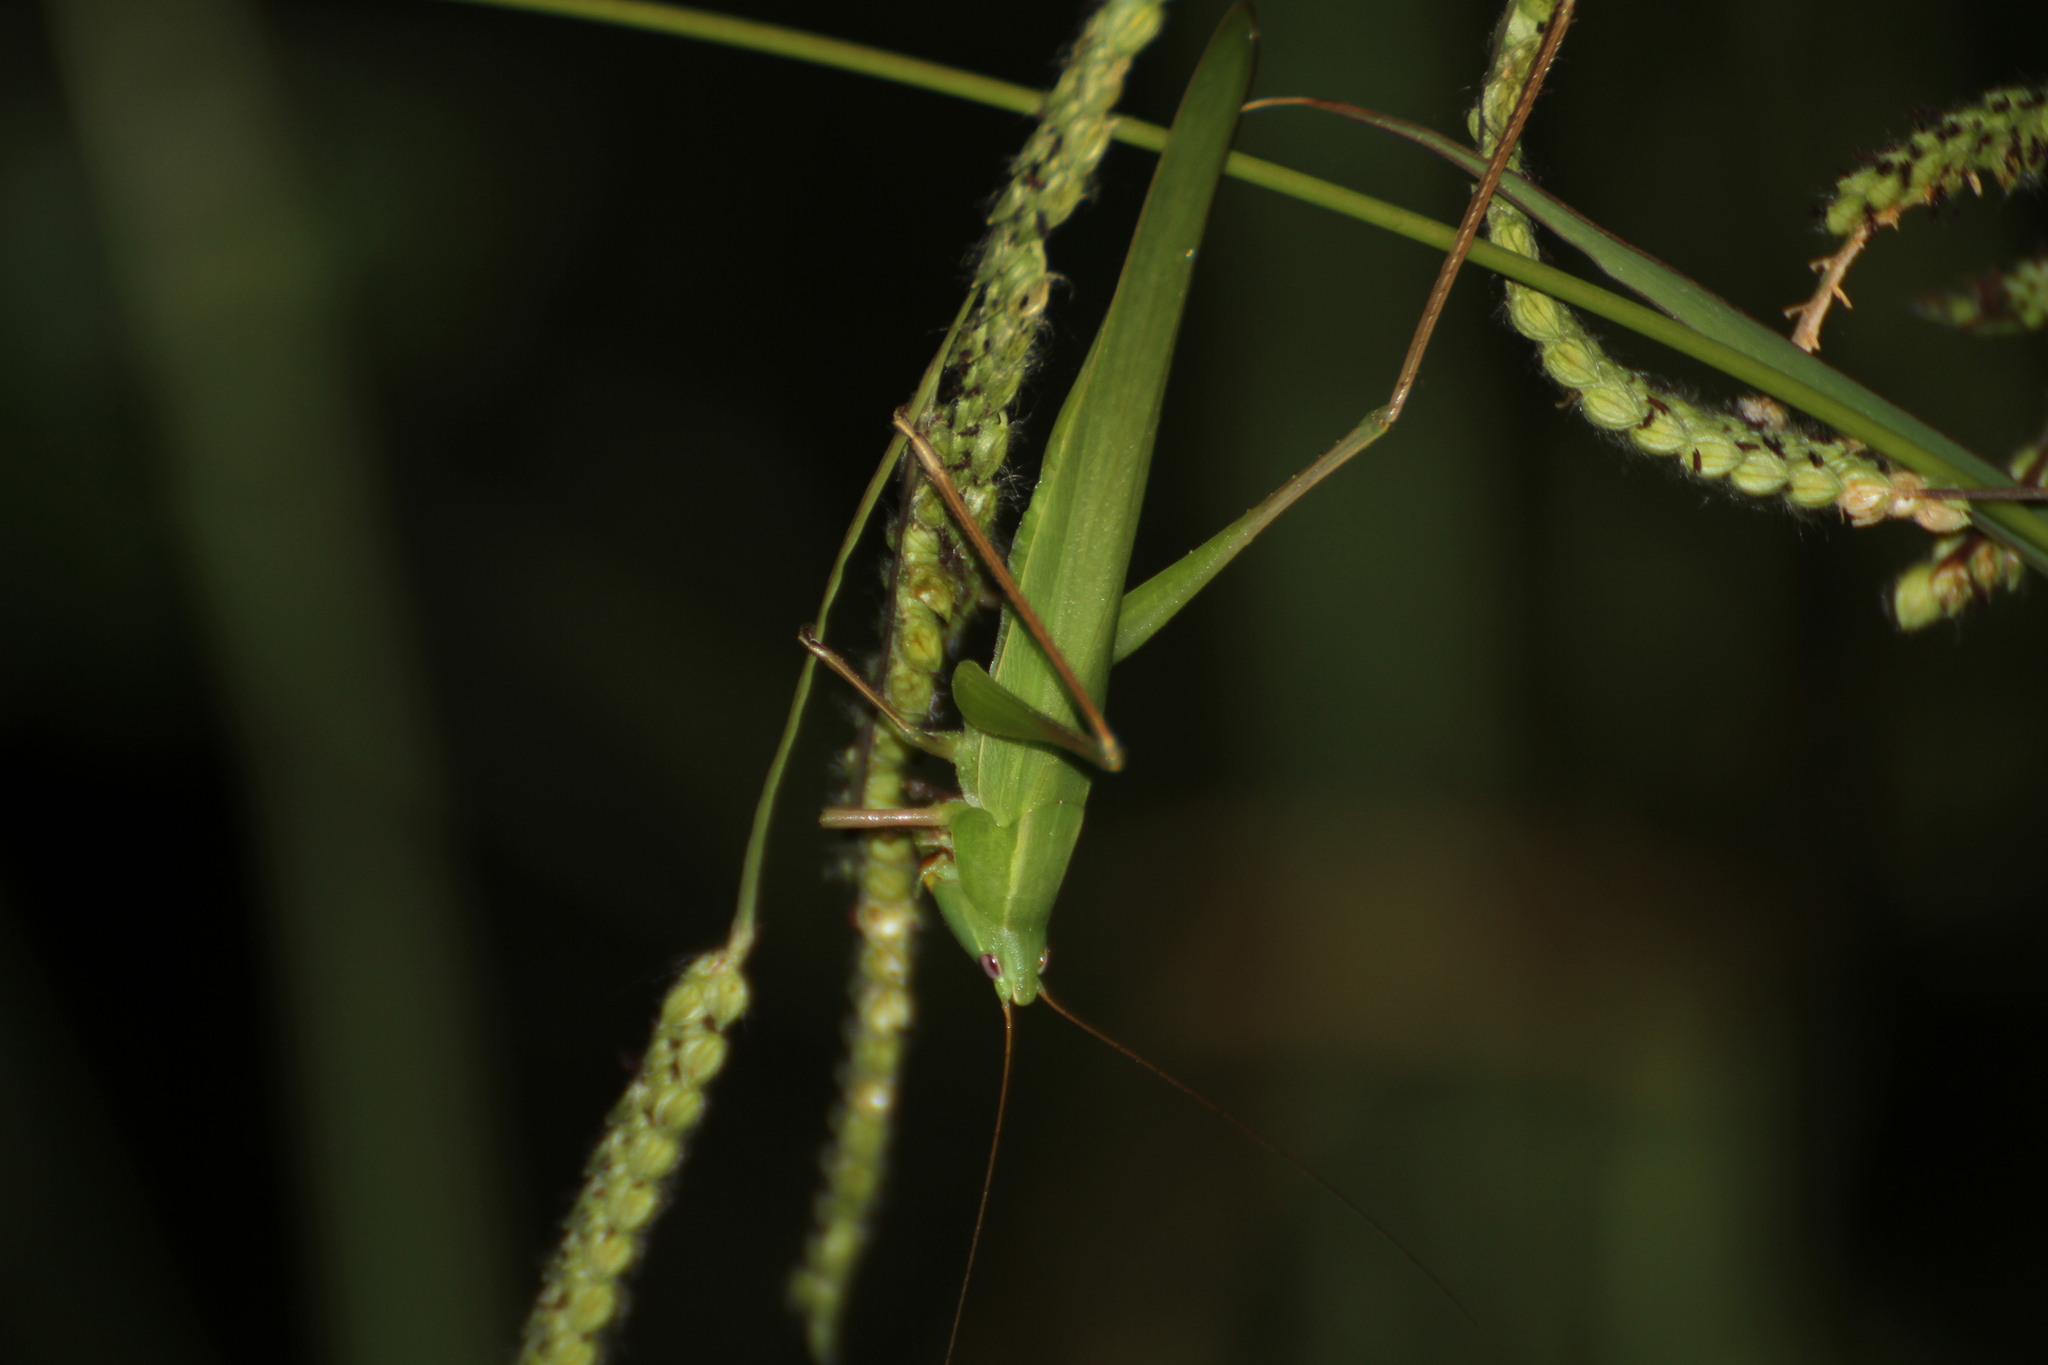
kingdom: Animalia
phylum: Arthropoda
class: Insecta
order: Orthoptera
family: Tettigoniidae
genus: Ruspolia
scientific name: Ruspolia nitidula
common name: Large conehead
